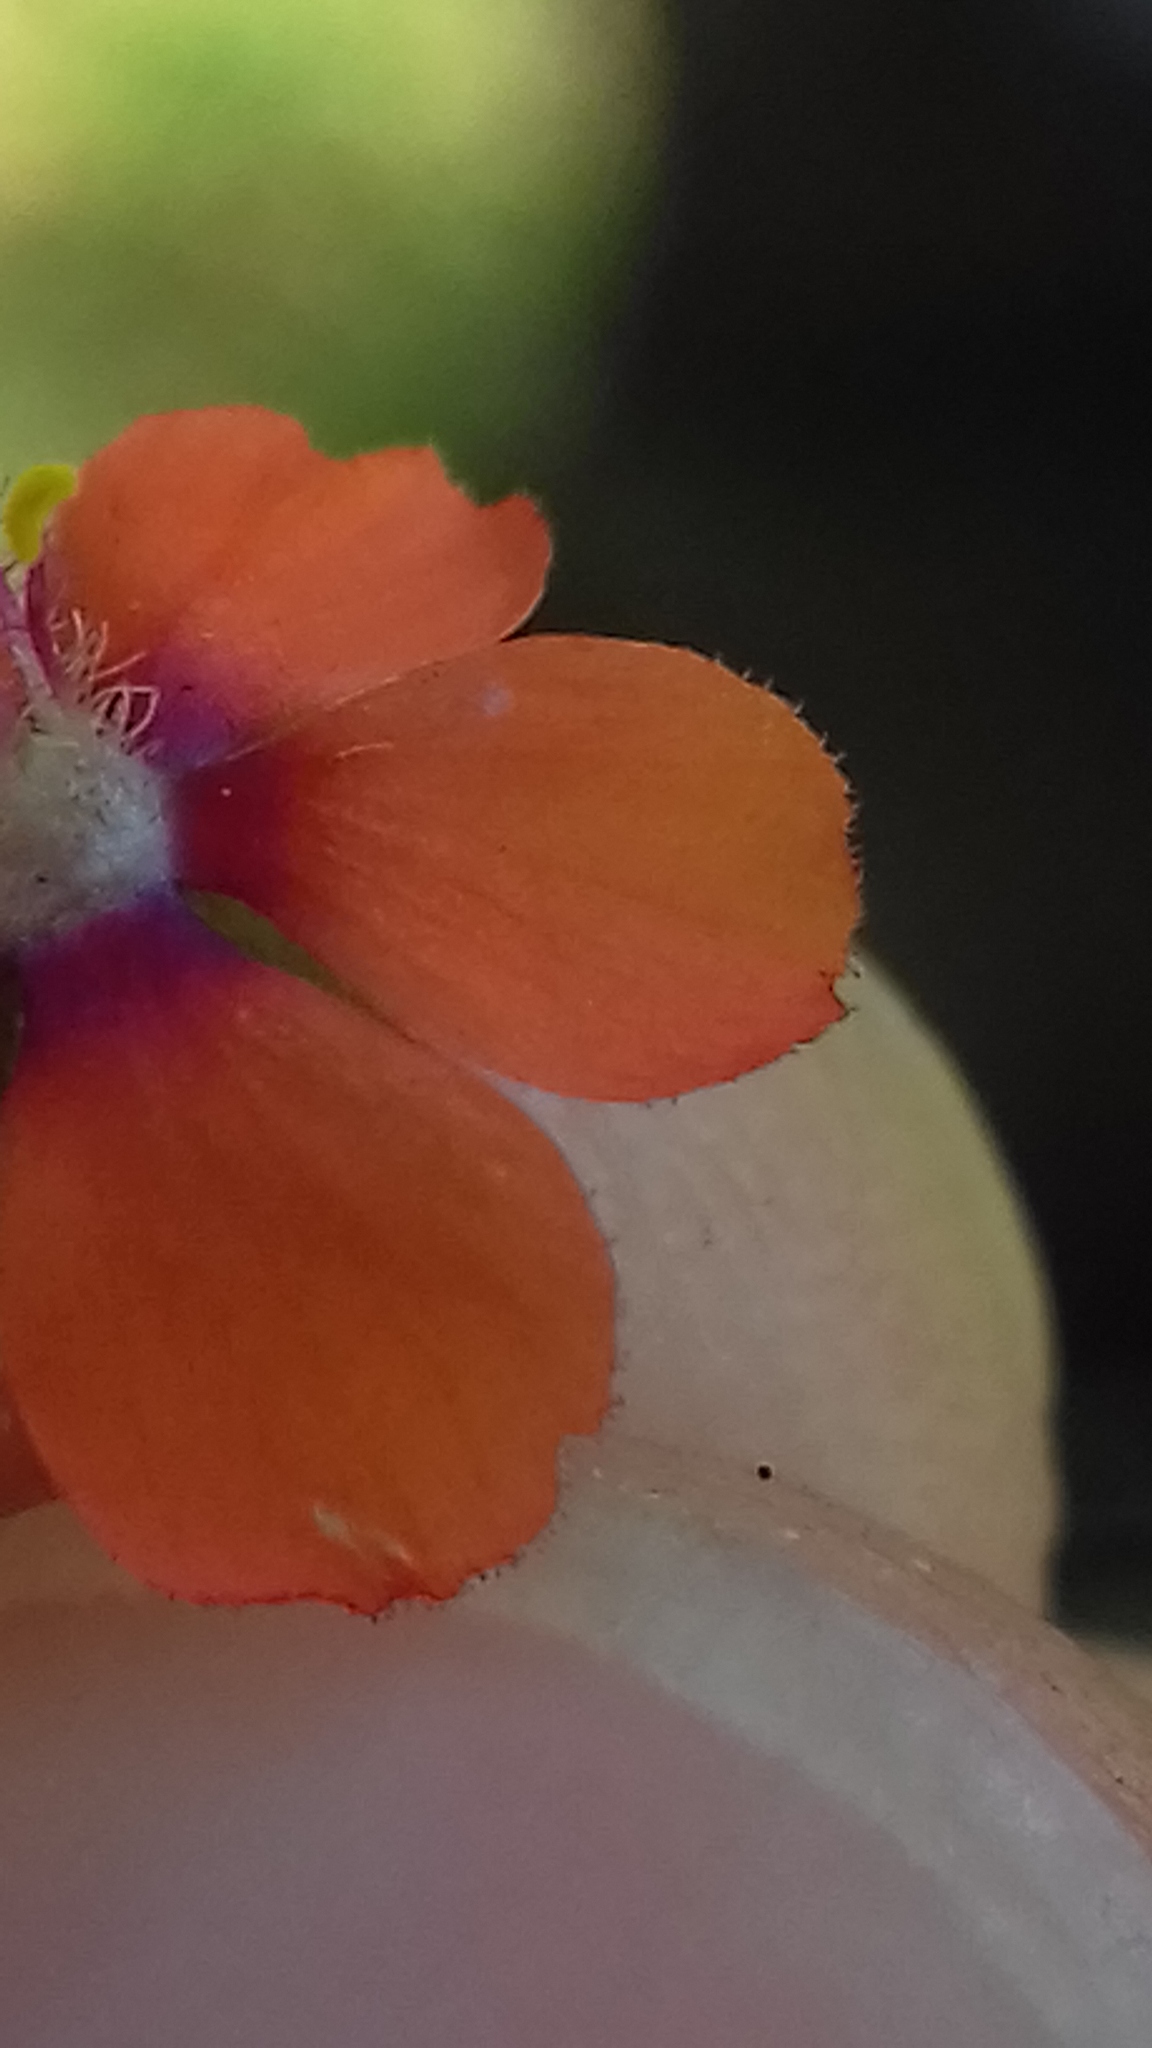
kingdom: Plantae
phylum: Tracheophyta
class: Magnoliopsida
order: Ericales
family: Primulaceae
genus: Lysimachia
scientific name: Lysimachia arvensis
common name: Scarlet pimpernel
